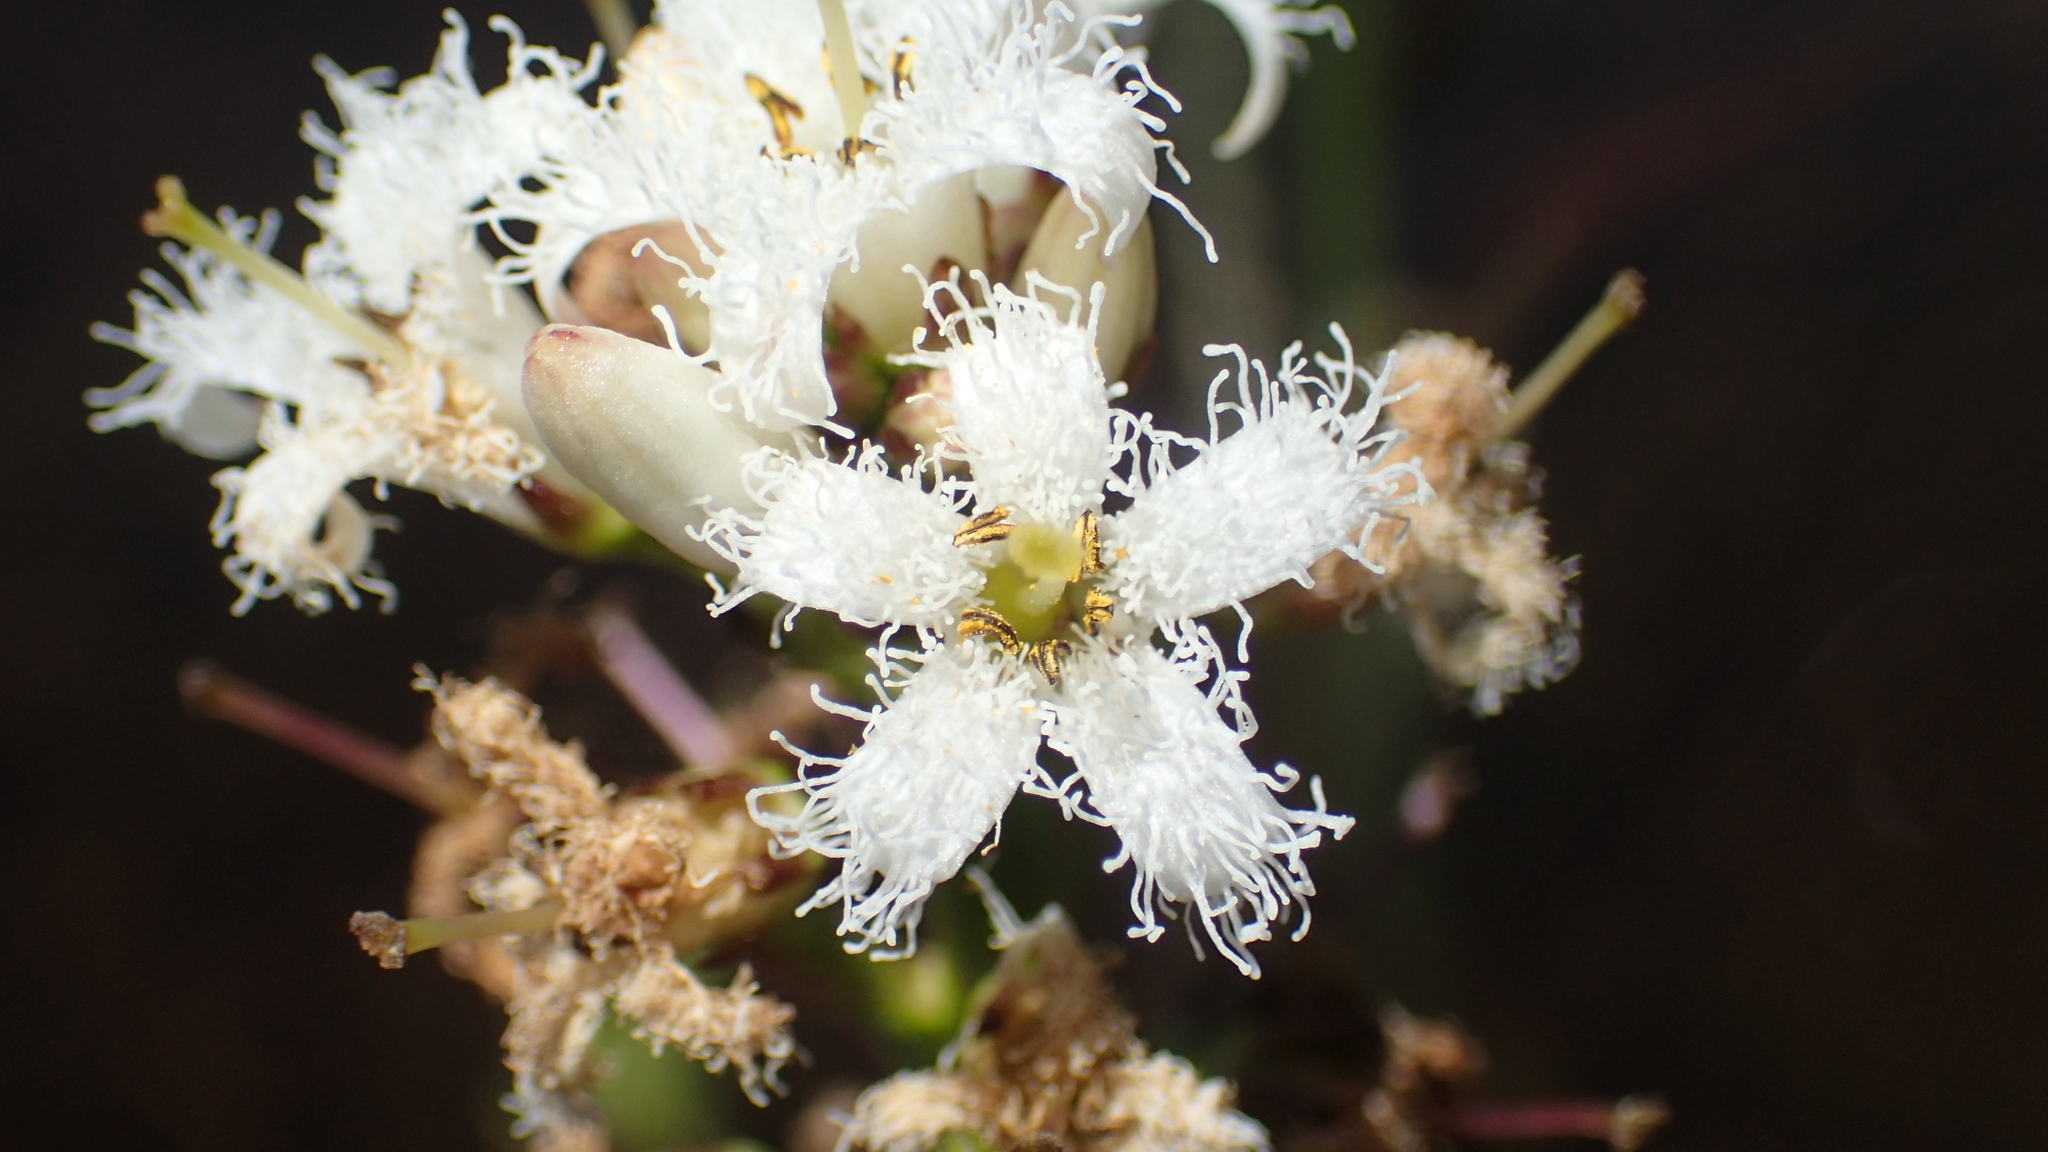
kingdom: Plantae
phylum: Tracheophyta
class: Magnoliopsida
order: Asterales
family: Menyanthaceae
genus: Menyanthes
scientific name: Menyanthes trifoliata
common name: Bogbean
